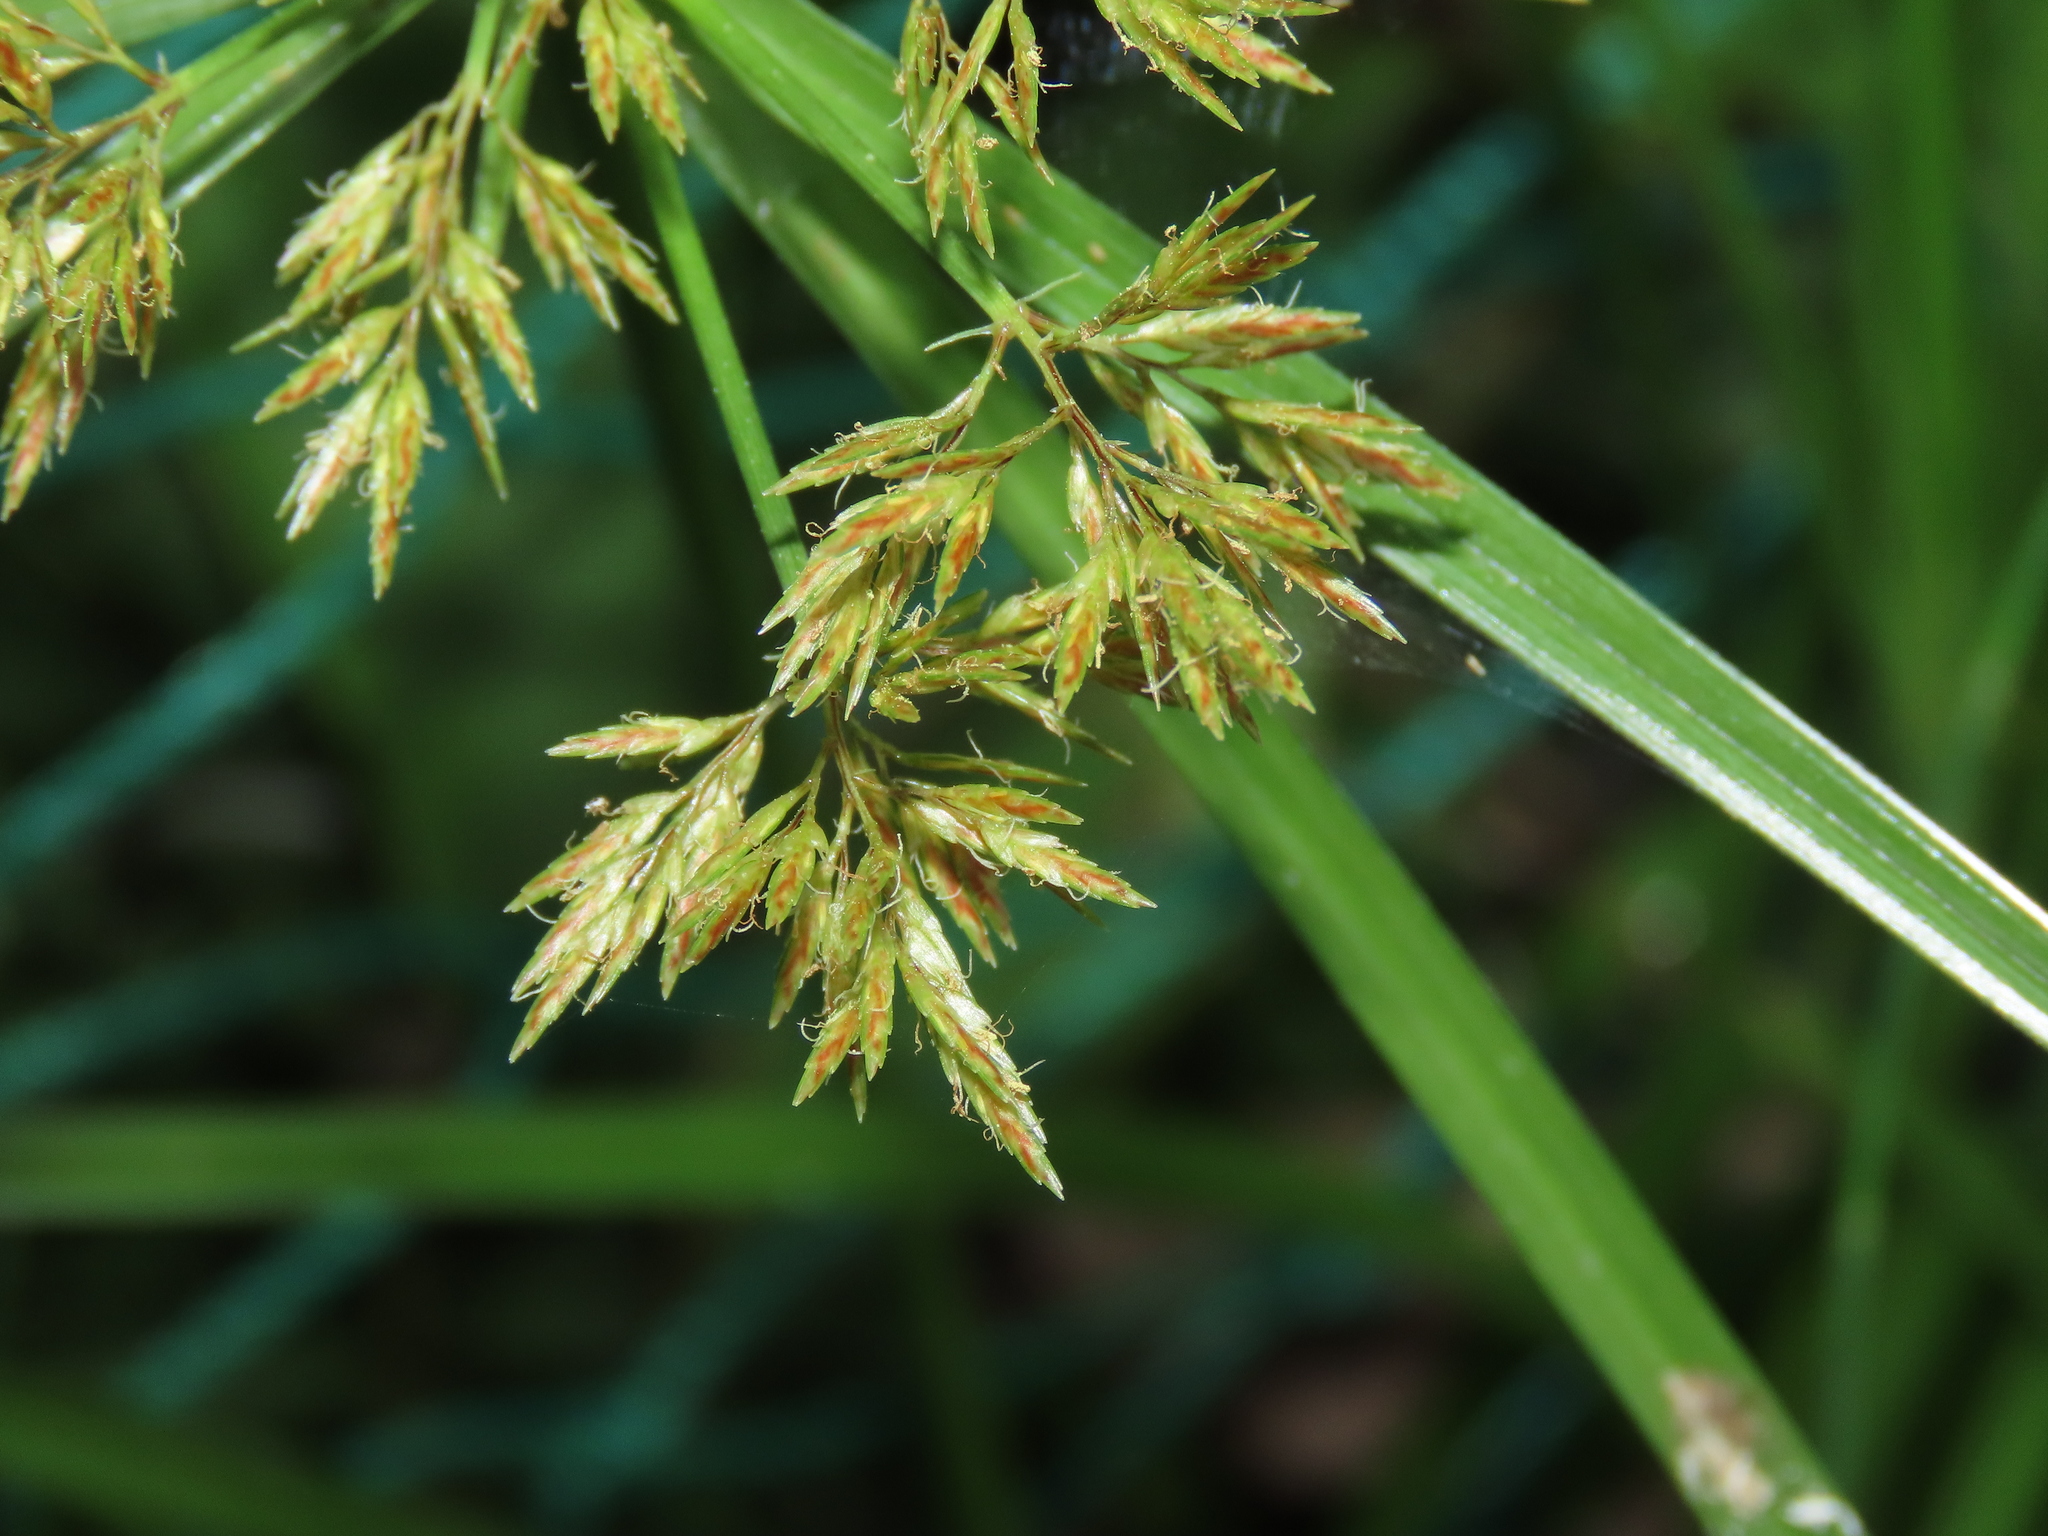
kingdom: Plantae
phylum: Tracheophyta
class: Liliopsida
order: Poales
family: Cyperaceae
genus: Cyperus
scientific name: Cyperus polystachyos
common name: Bunchy flat sedge
